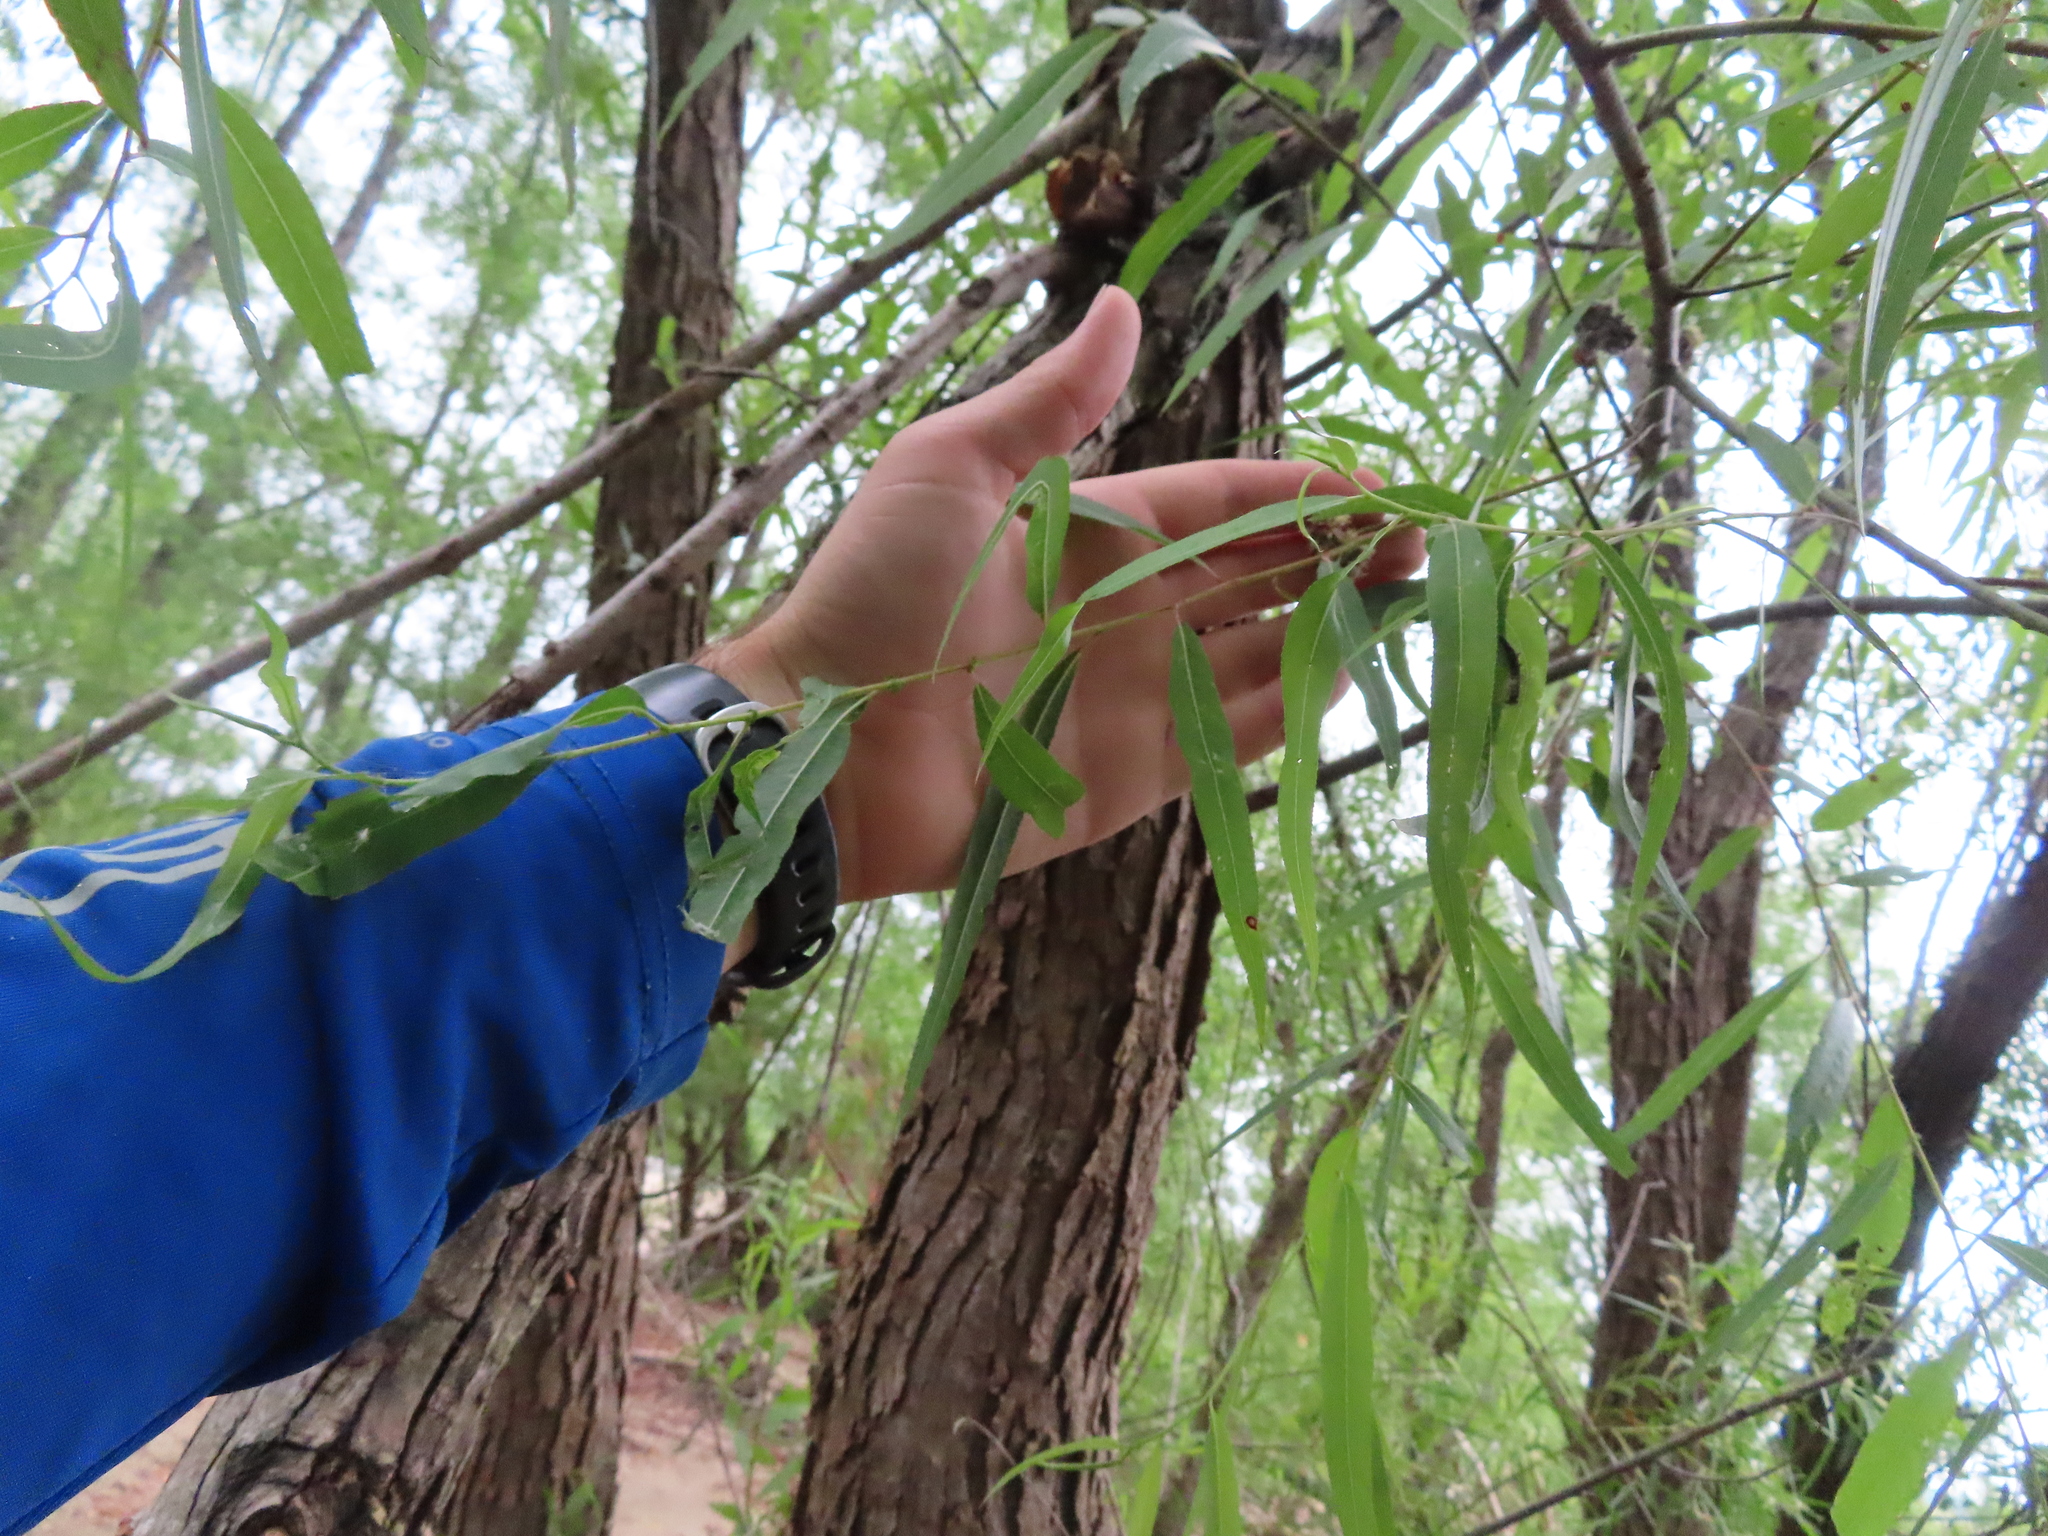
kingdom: Plantae
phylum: Tracheophyta
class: Magnoliopsida
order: Malpighiales
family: Salicaceae
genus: Salix
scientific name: Salix nigra
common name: Black willow
